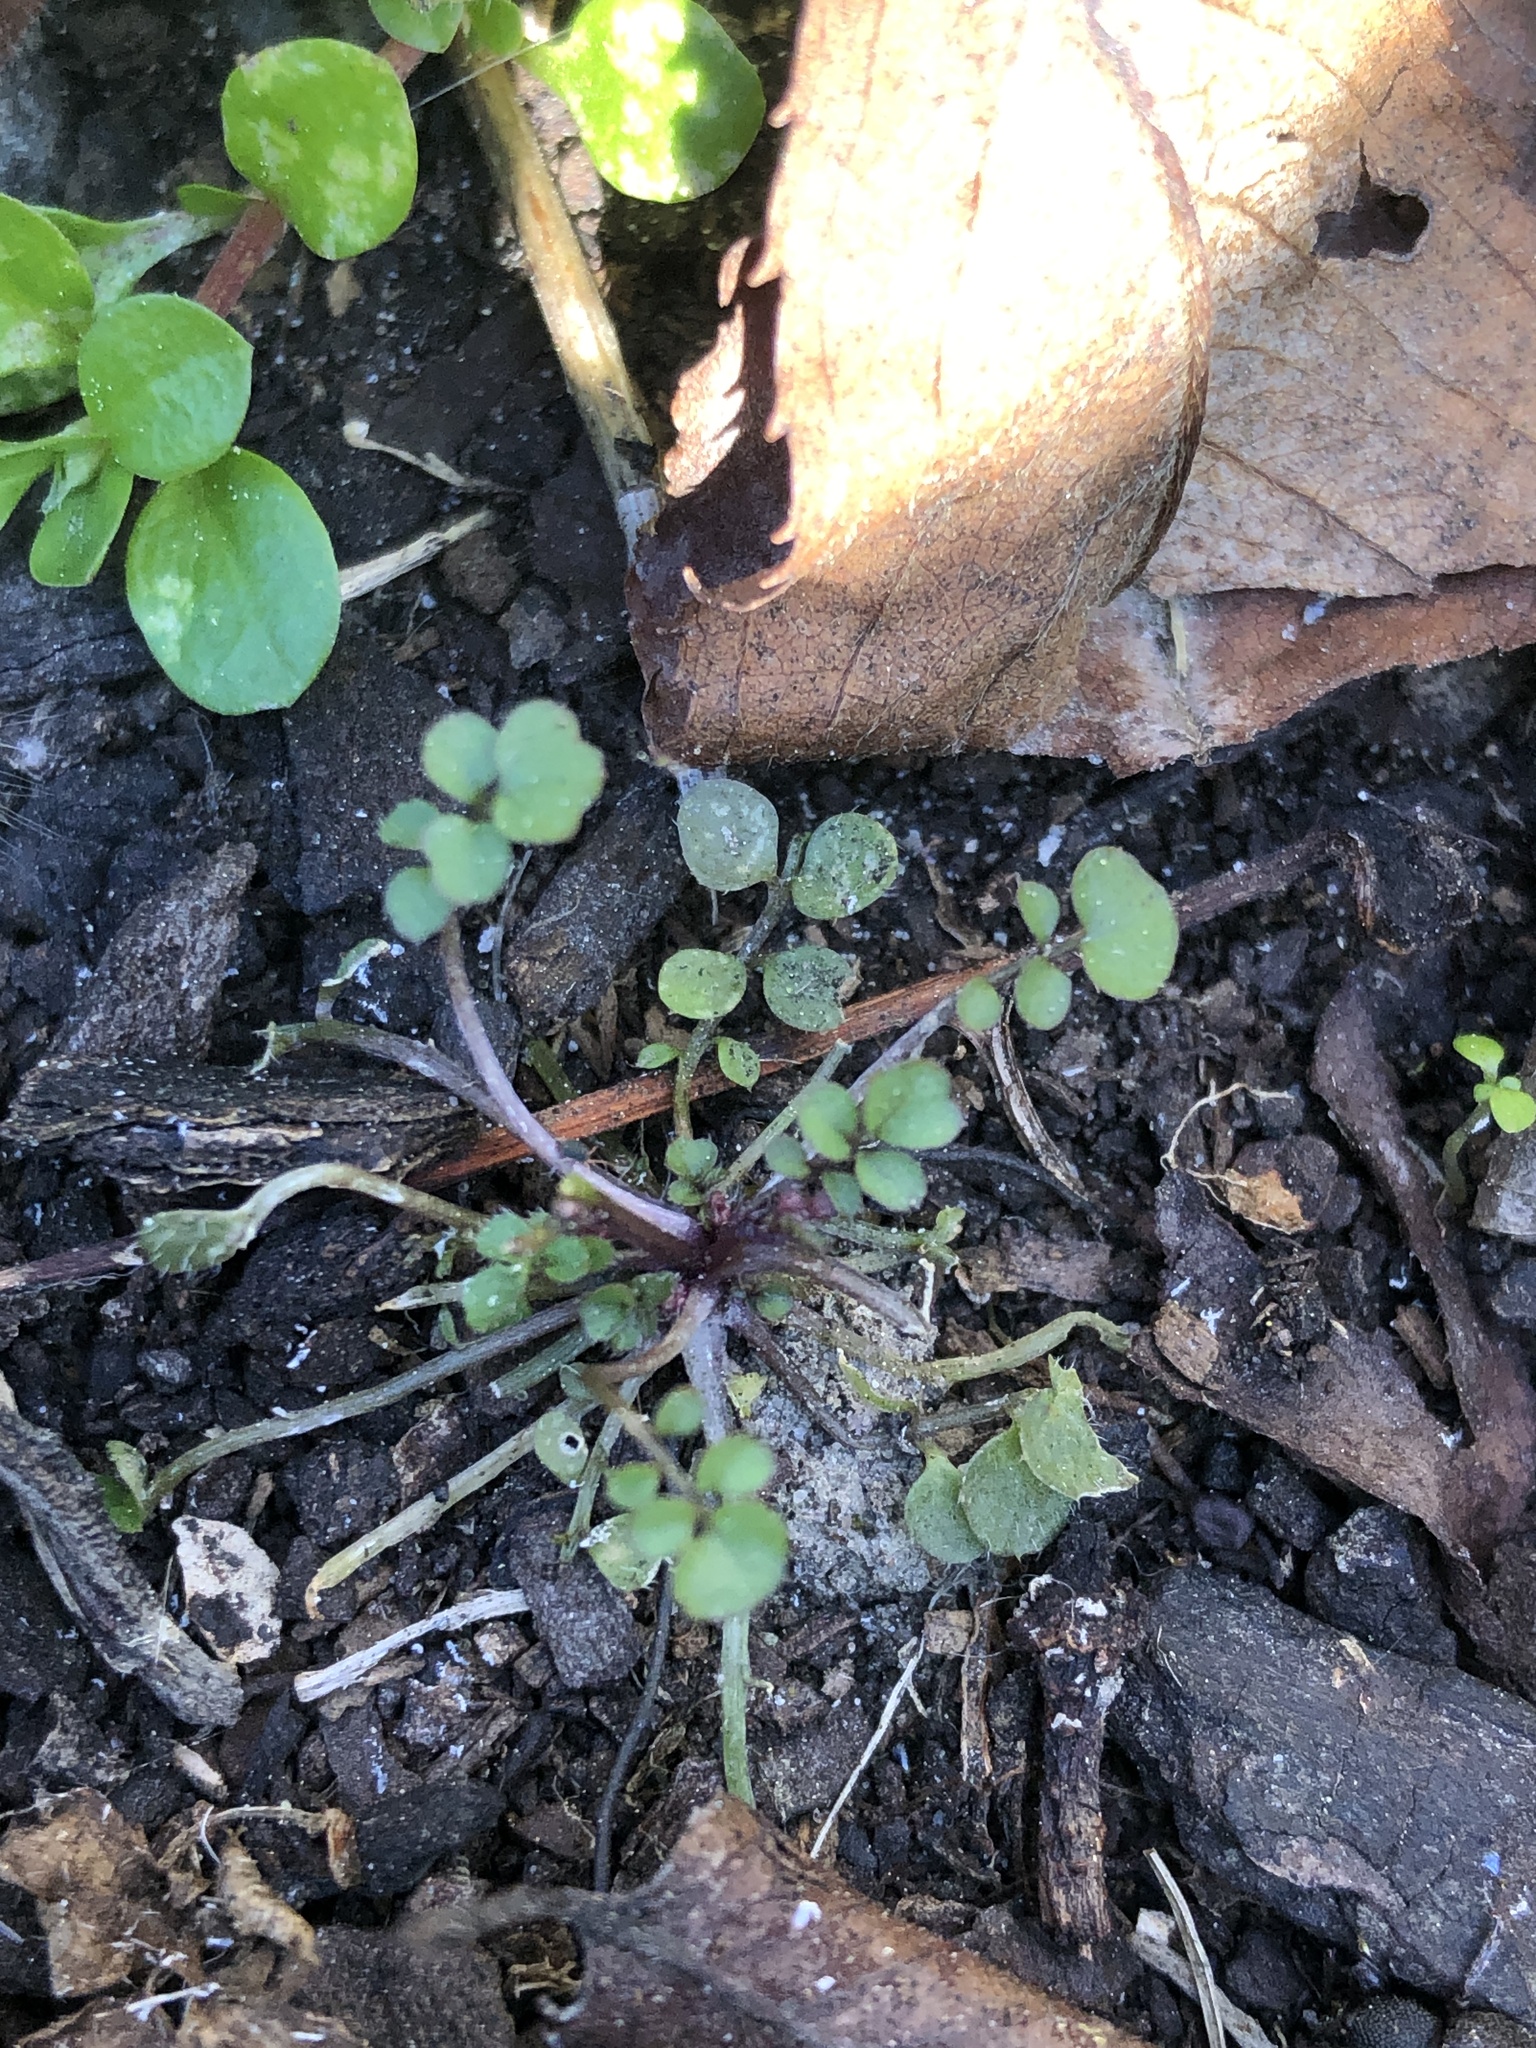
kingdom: Plantae
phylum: Tracheophyta
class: Magnoliopsida
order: Brassicales
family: Brassicaceae
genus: Cardamine
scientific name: Cardamine hirsuta
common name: Hairy bittercress
